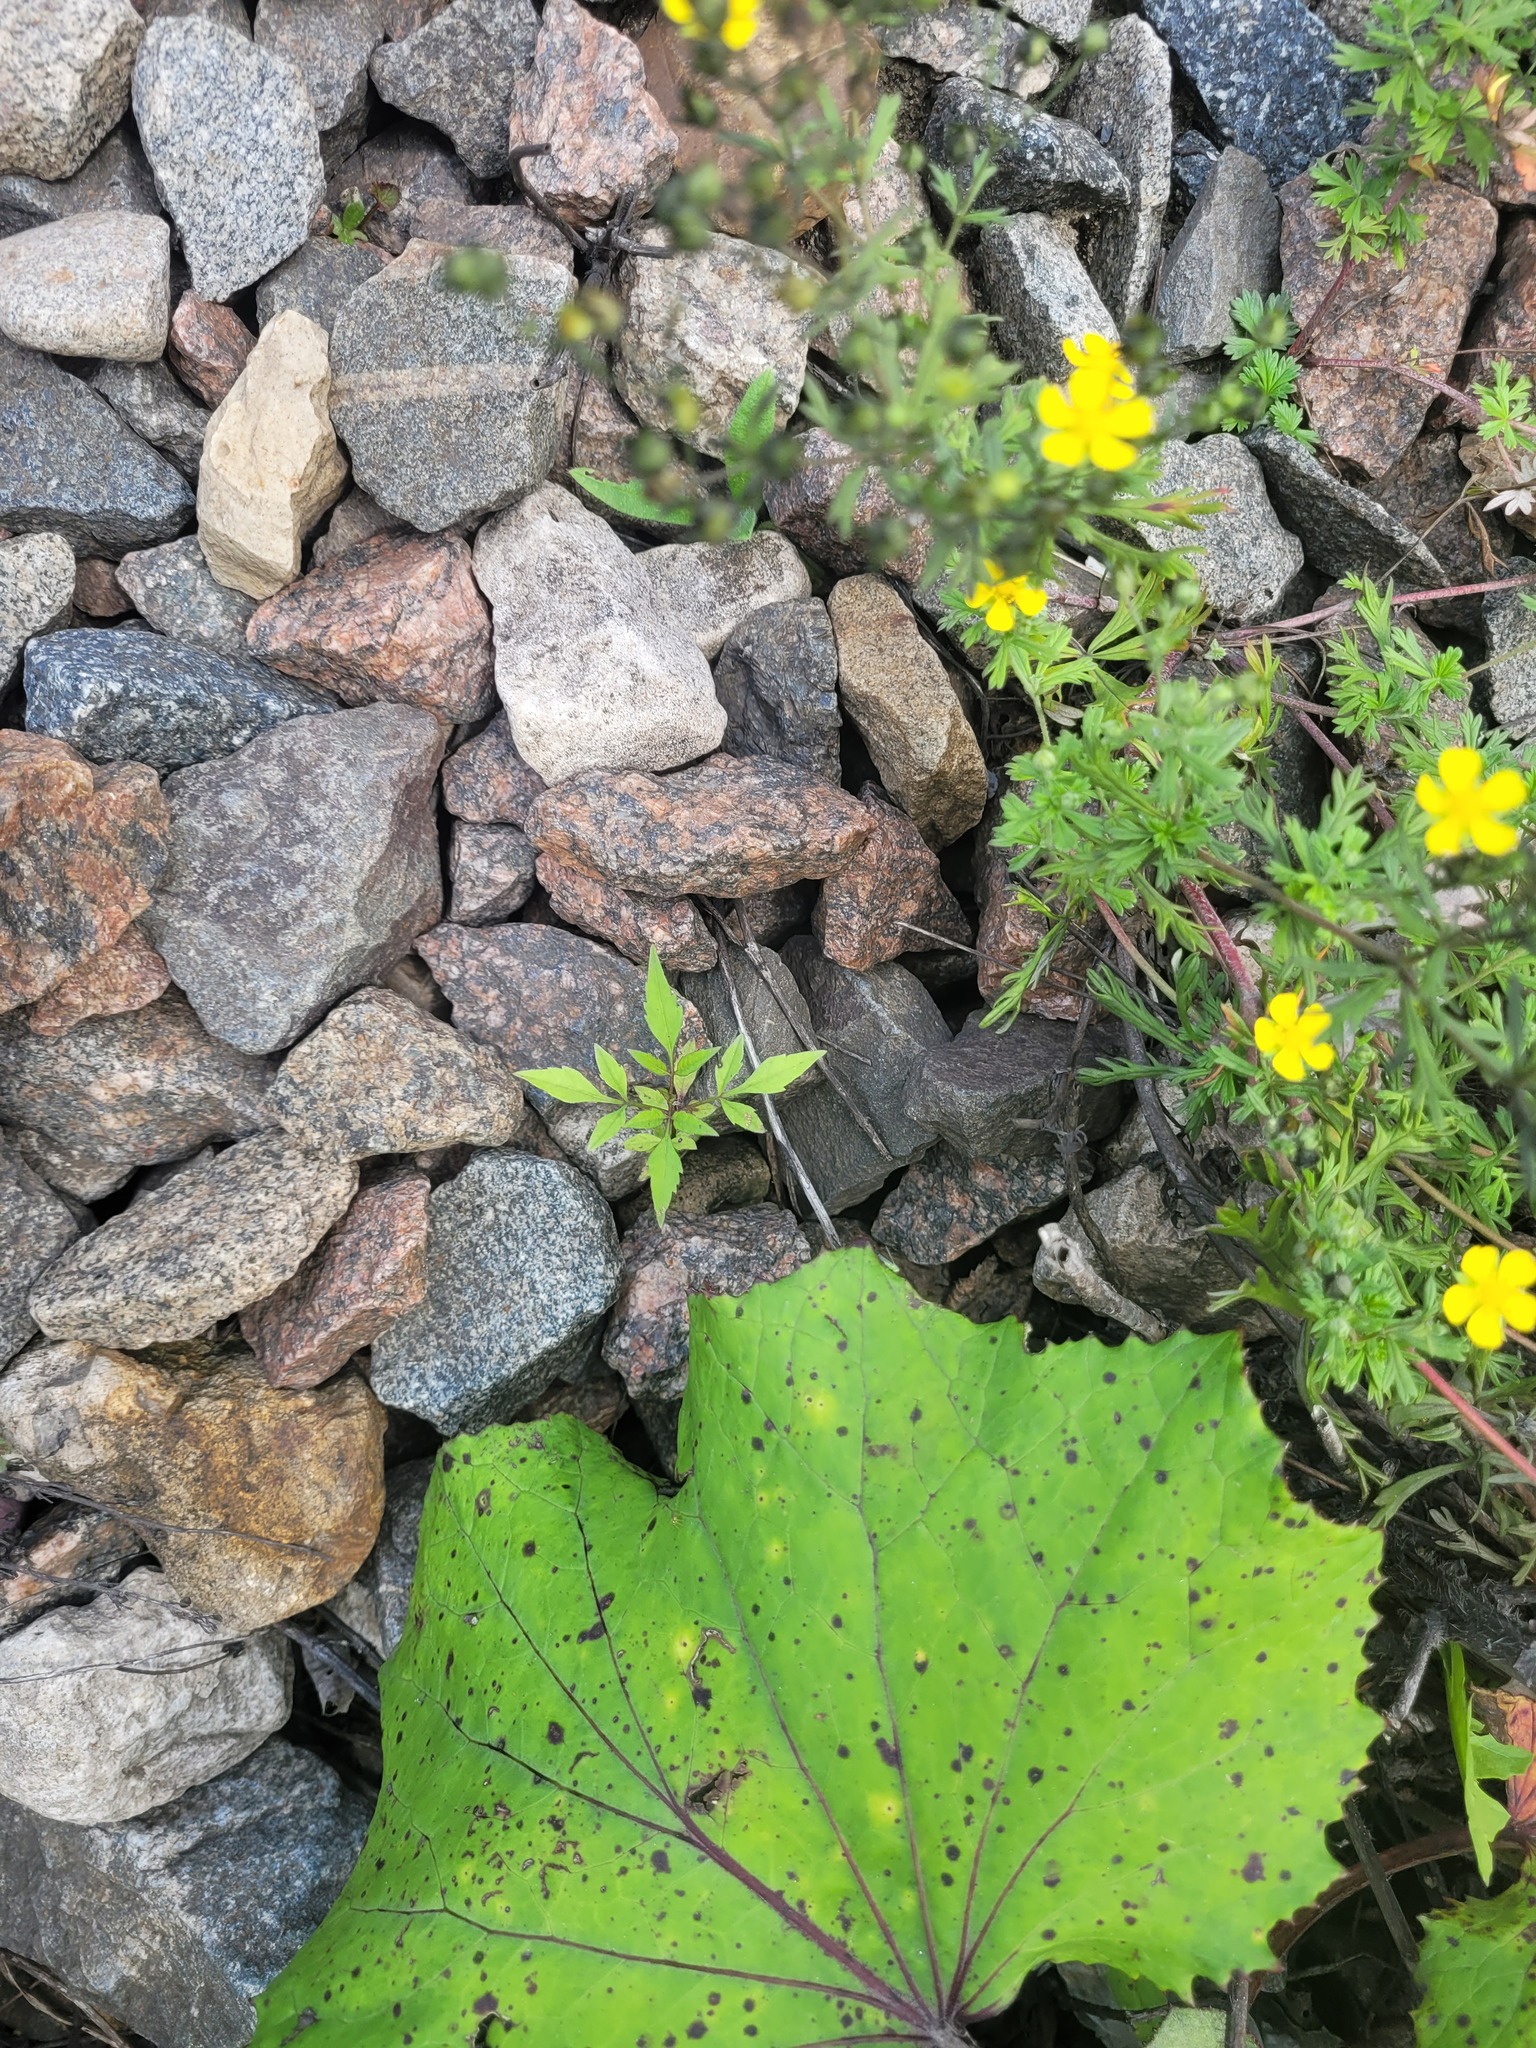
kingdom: Plantae
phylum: Tracheophyta
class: Magnoliopsida
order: Asterales
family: Asteraceae
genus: Bidens
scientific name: Bidens frondosa
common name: Beggarticks
